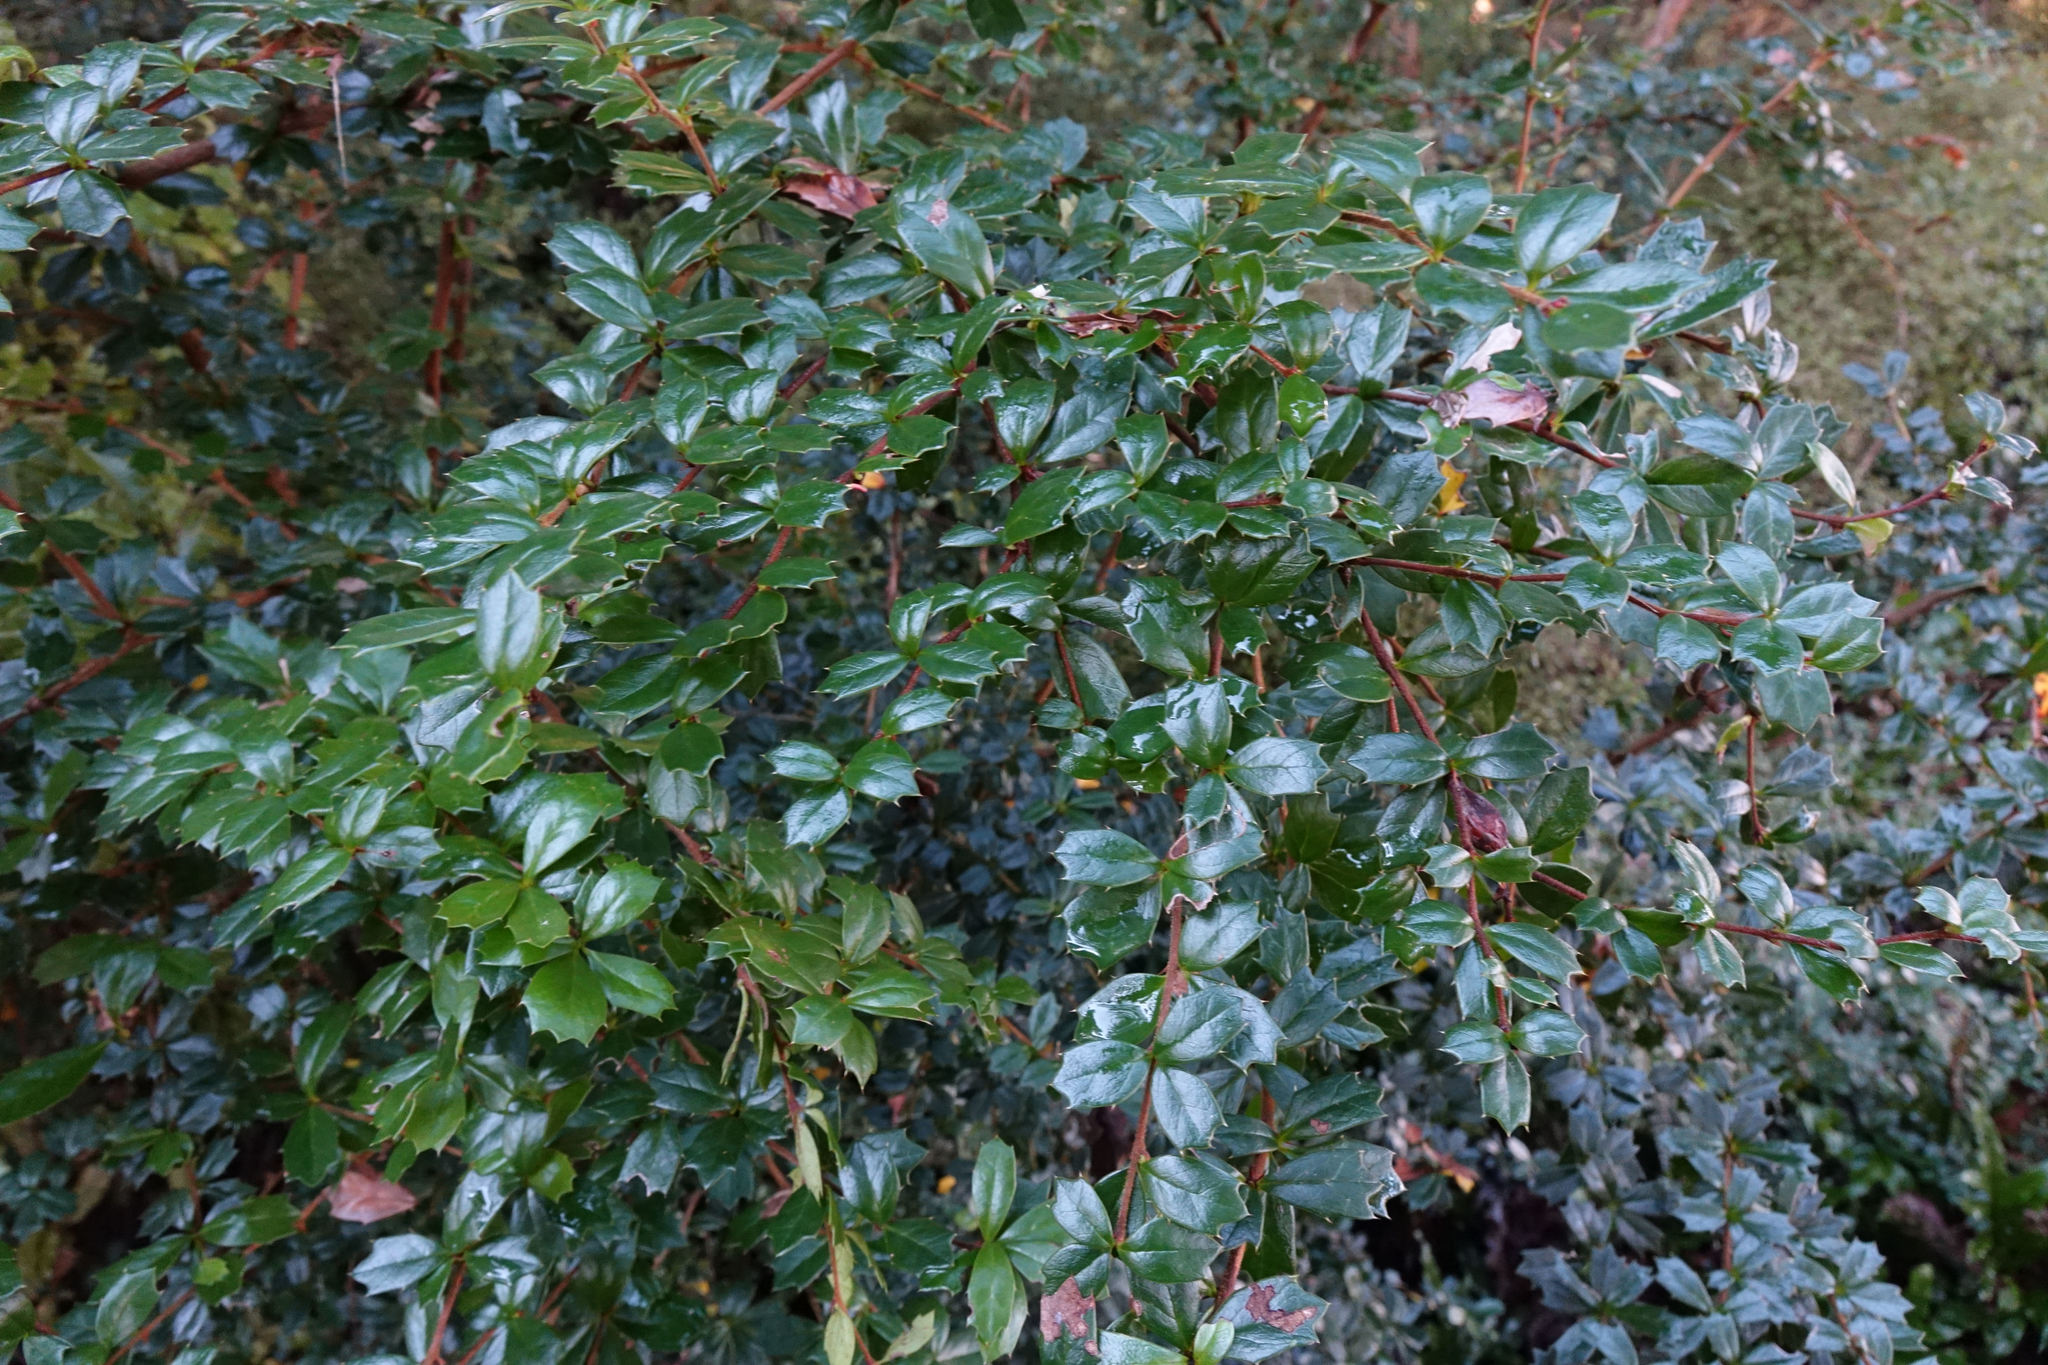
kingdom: Plantae
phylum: Tracheophyta
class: Magnoliopsida
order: Ranunculales
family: Berberidaceae
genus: Berberis
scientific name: Berberis darwinii
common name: Darwin's barberry
